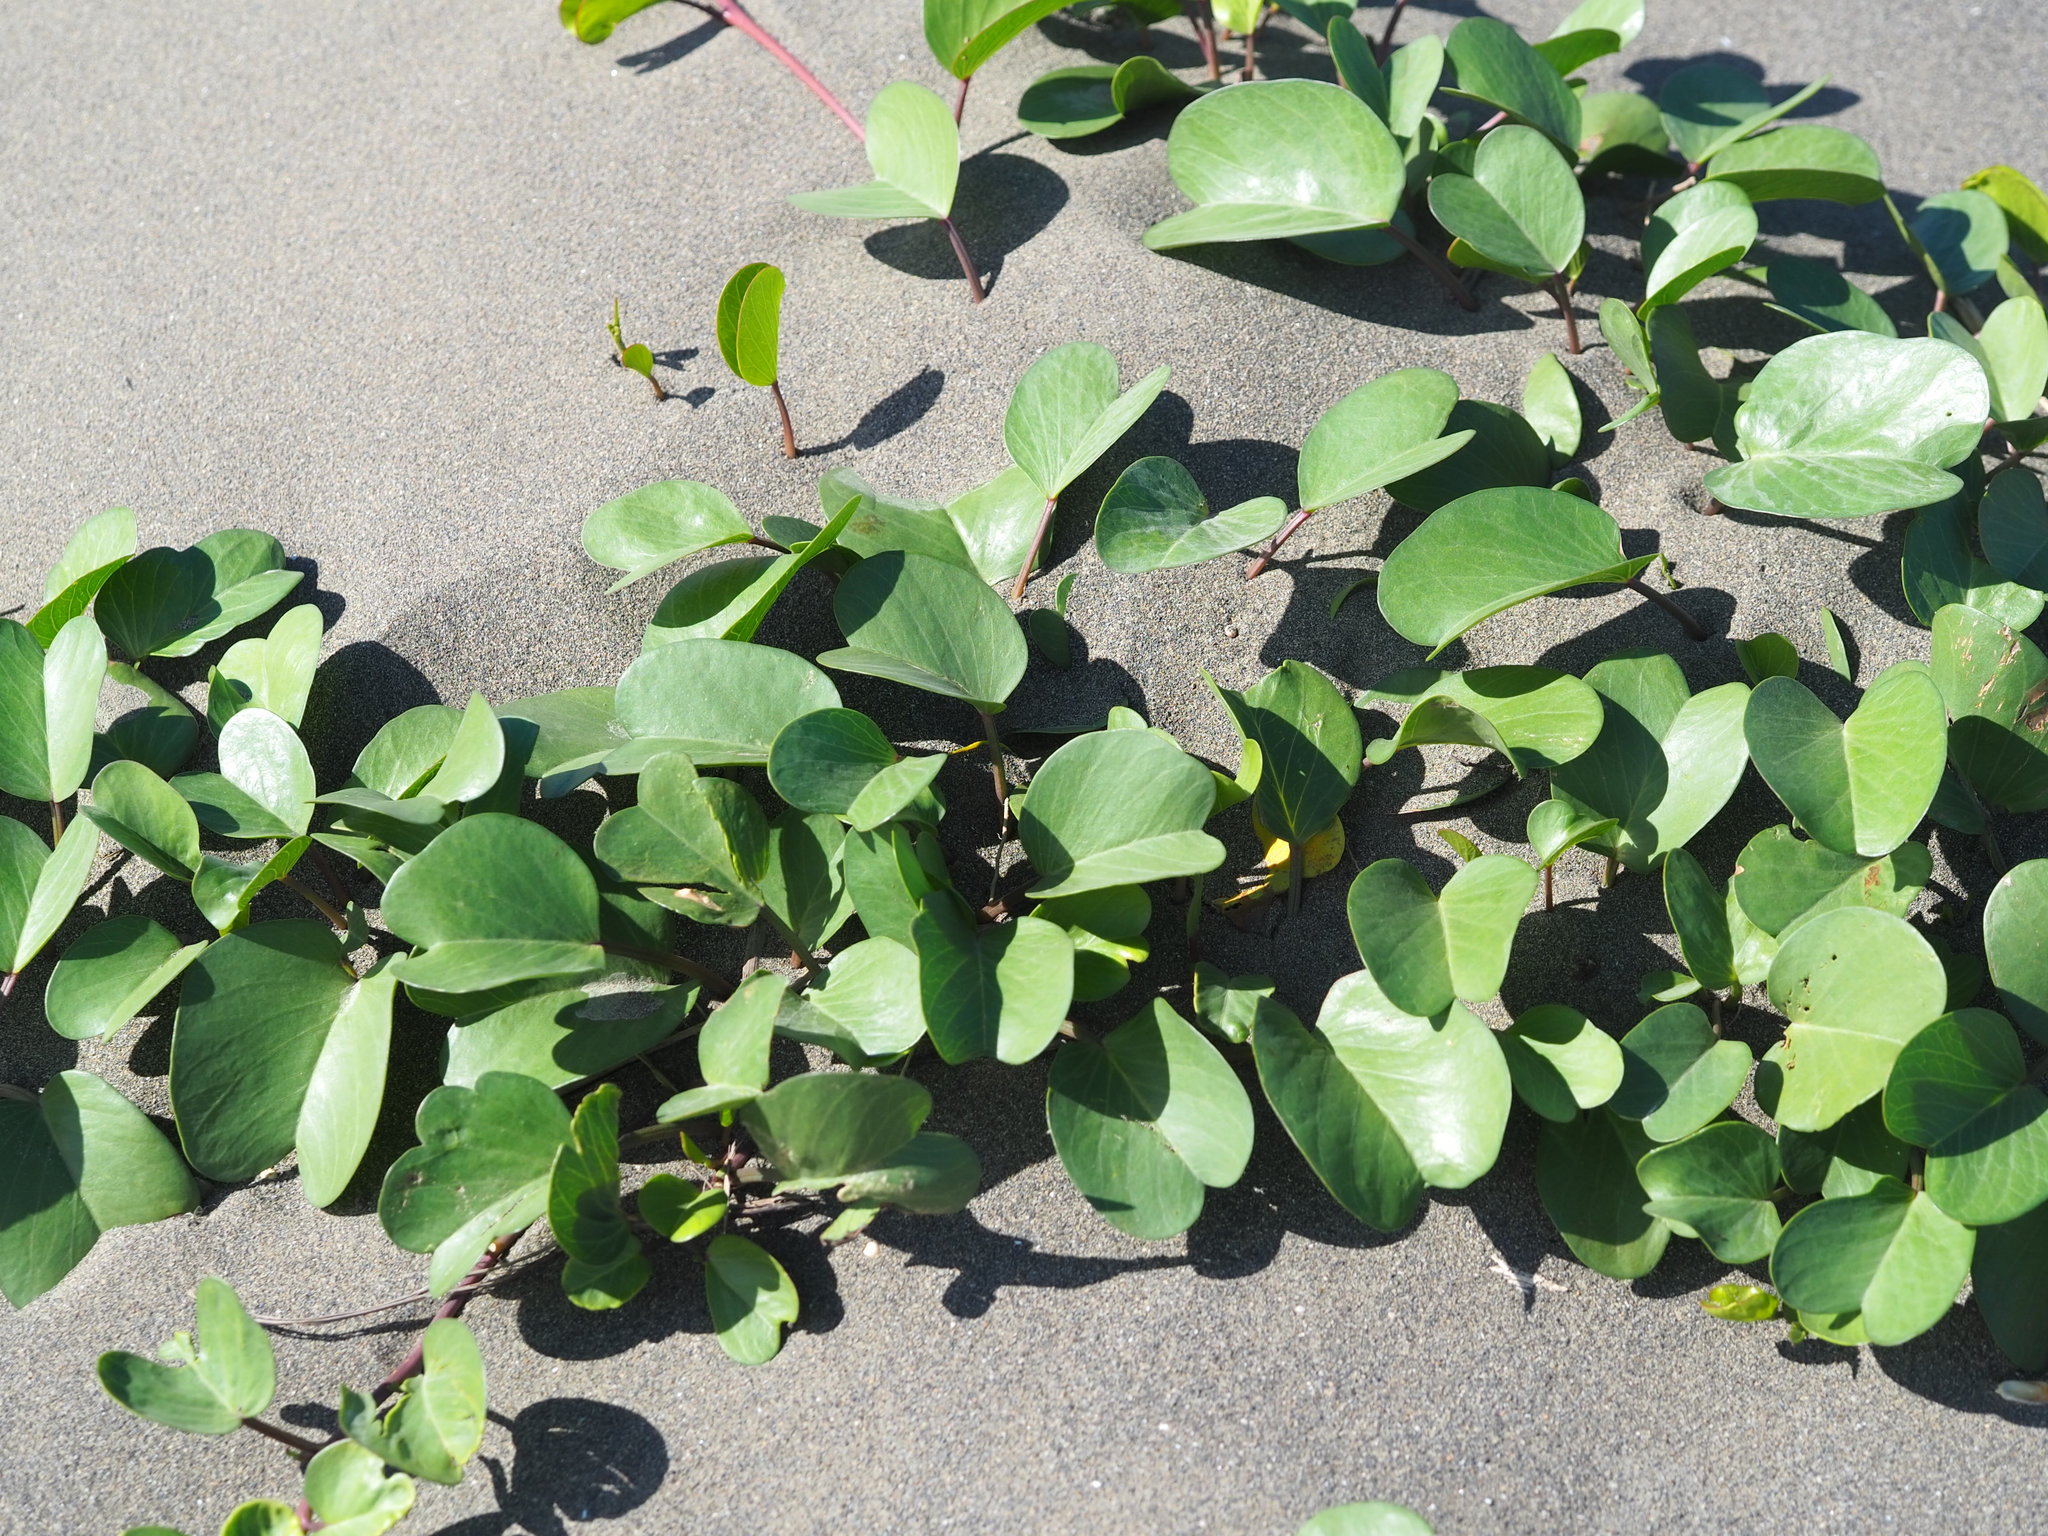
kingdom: Plantae
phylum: Tracheophyta
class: Magnoliopsida
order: Solanales
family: Convolvulaceae
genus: Ipomoea
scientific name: Ipomoea pes-caprae
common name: Beach morning glory
